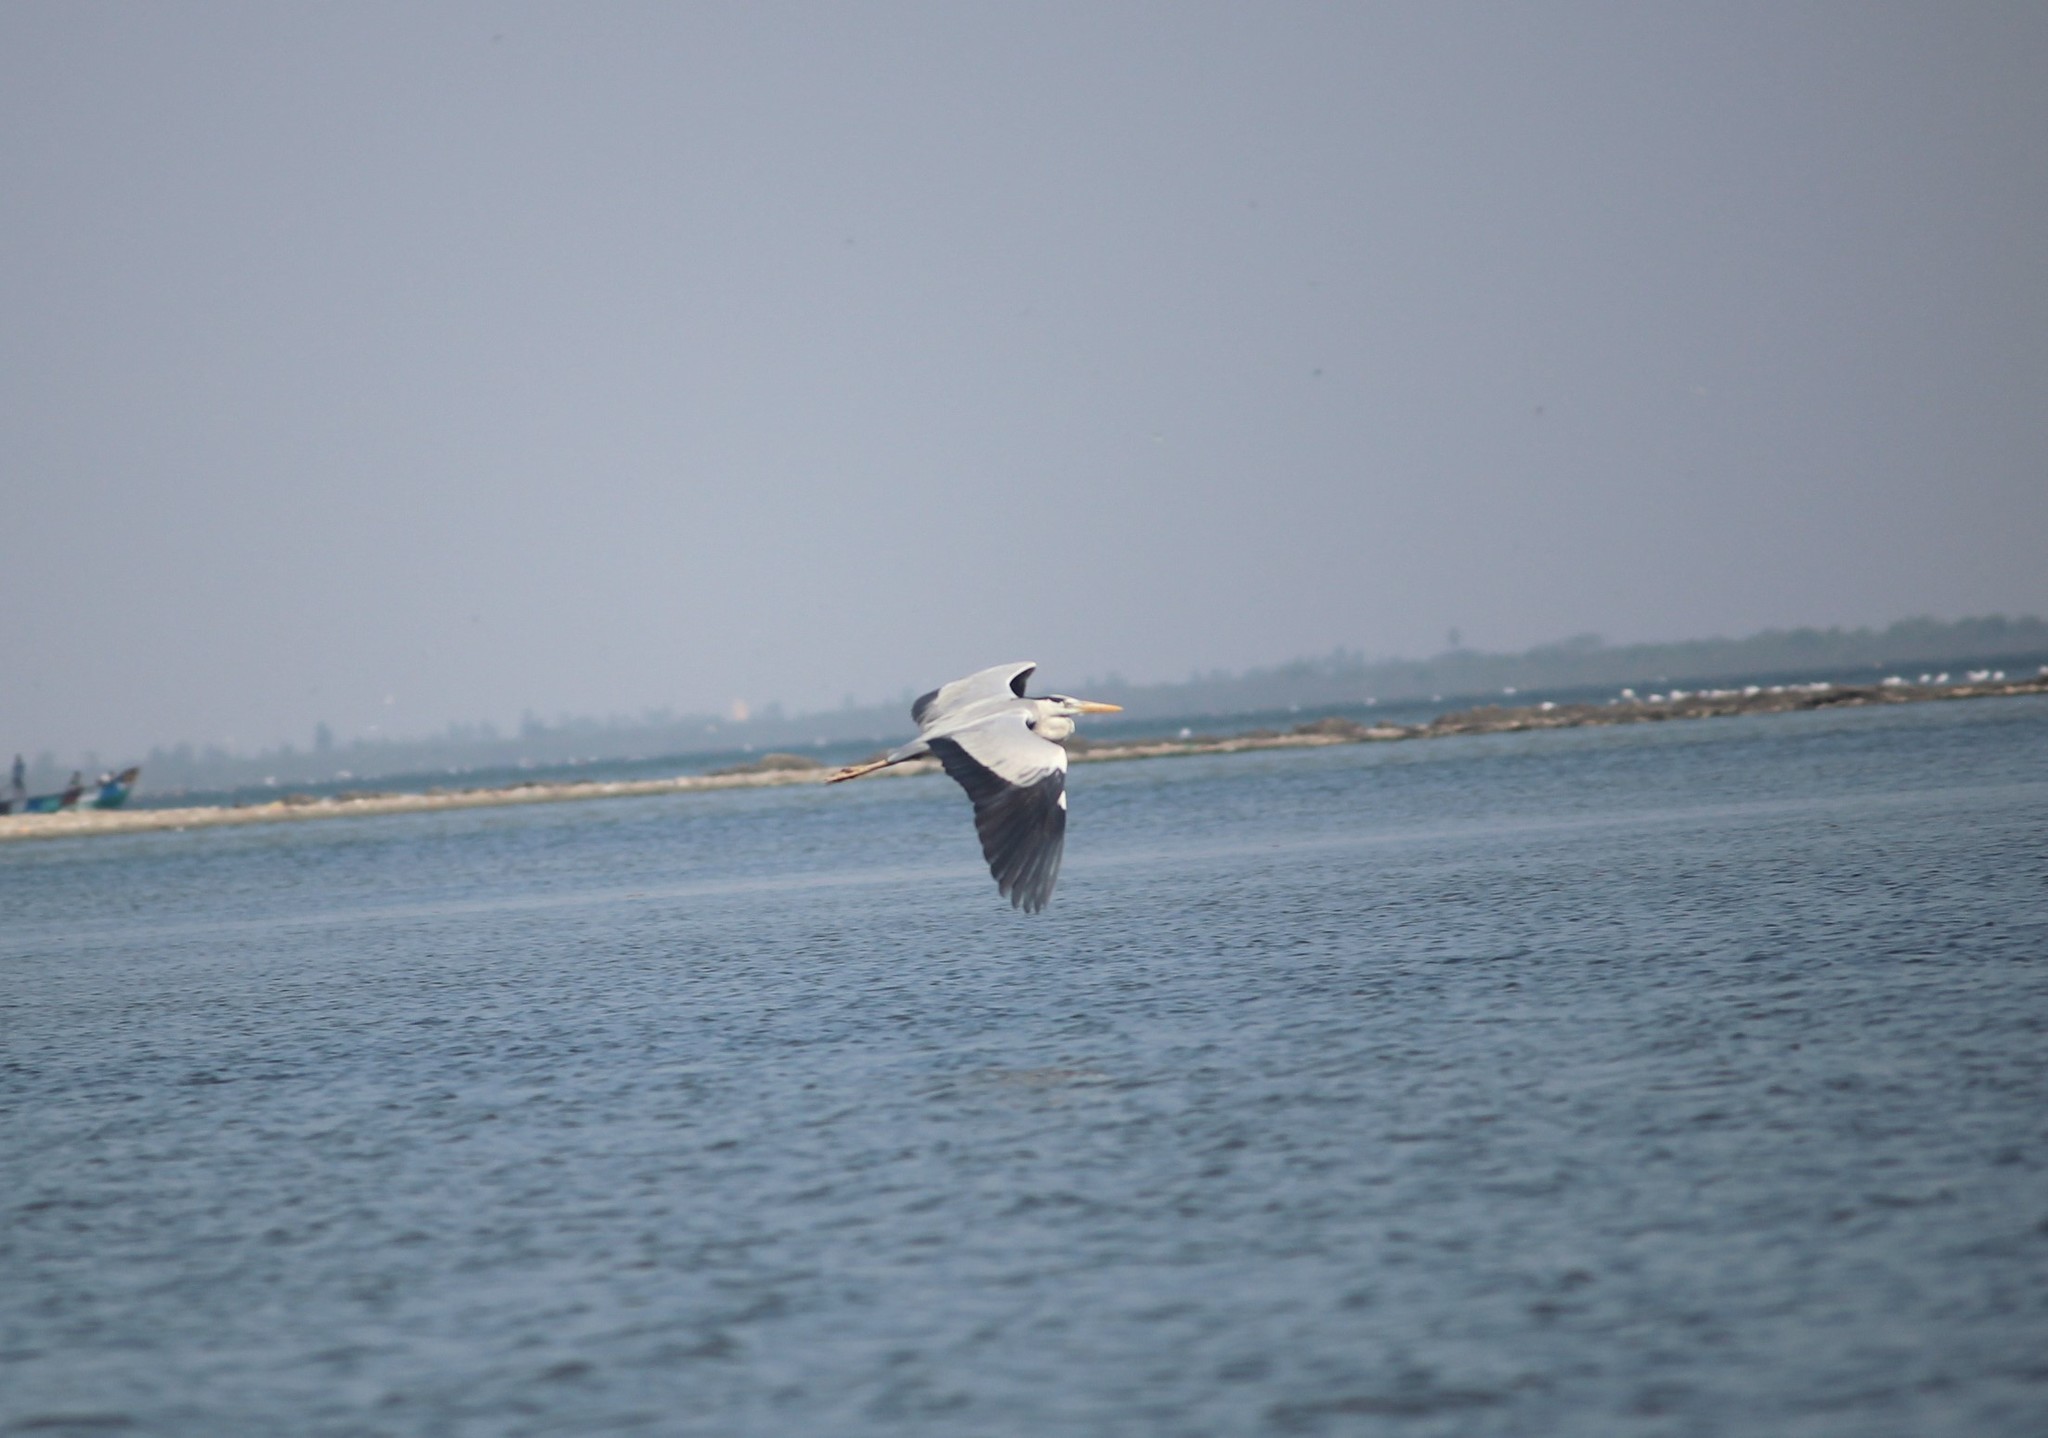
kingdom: Animalia
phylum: Chordata
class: Aves
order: Pelecaniformes
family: Ardeidae
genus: Ardea
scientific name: Ardea cinerea
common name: Grey heron
